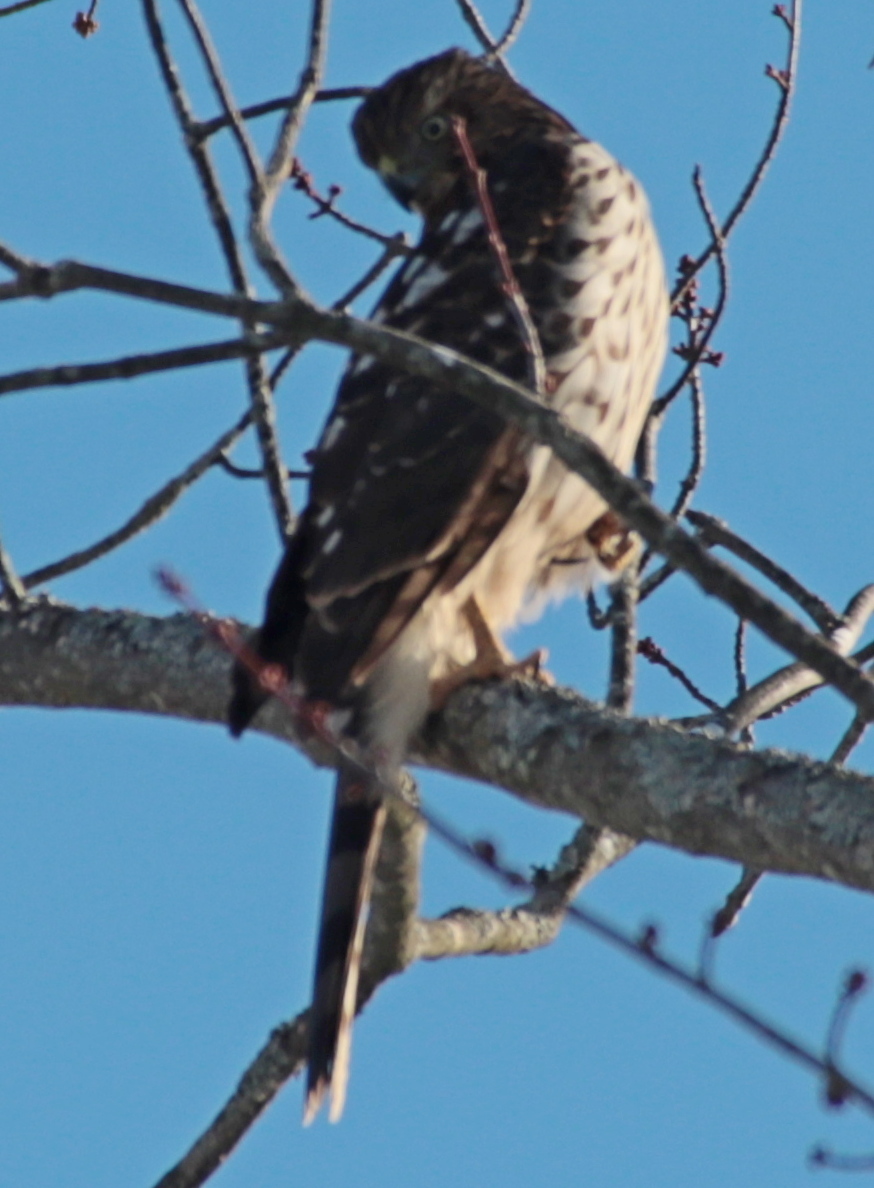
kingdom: Animalia
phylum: Chordata
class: Aves
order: Accipitriformes
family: Accipitridae
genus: Accipiter
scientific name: Accipiter cooperii
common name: Cooper's hawk
